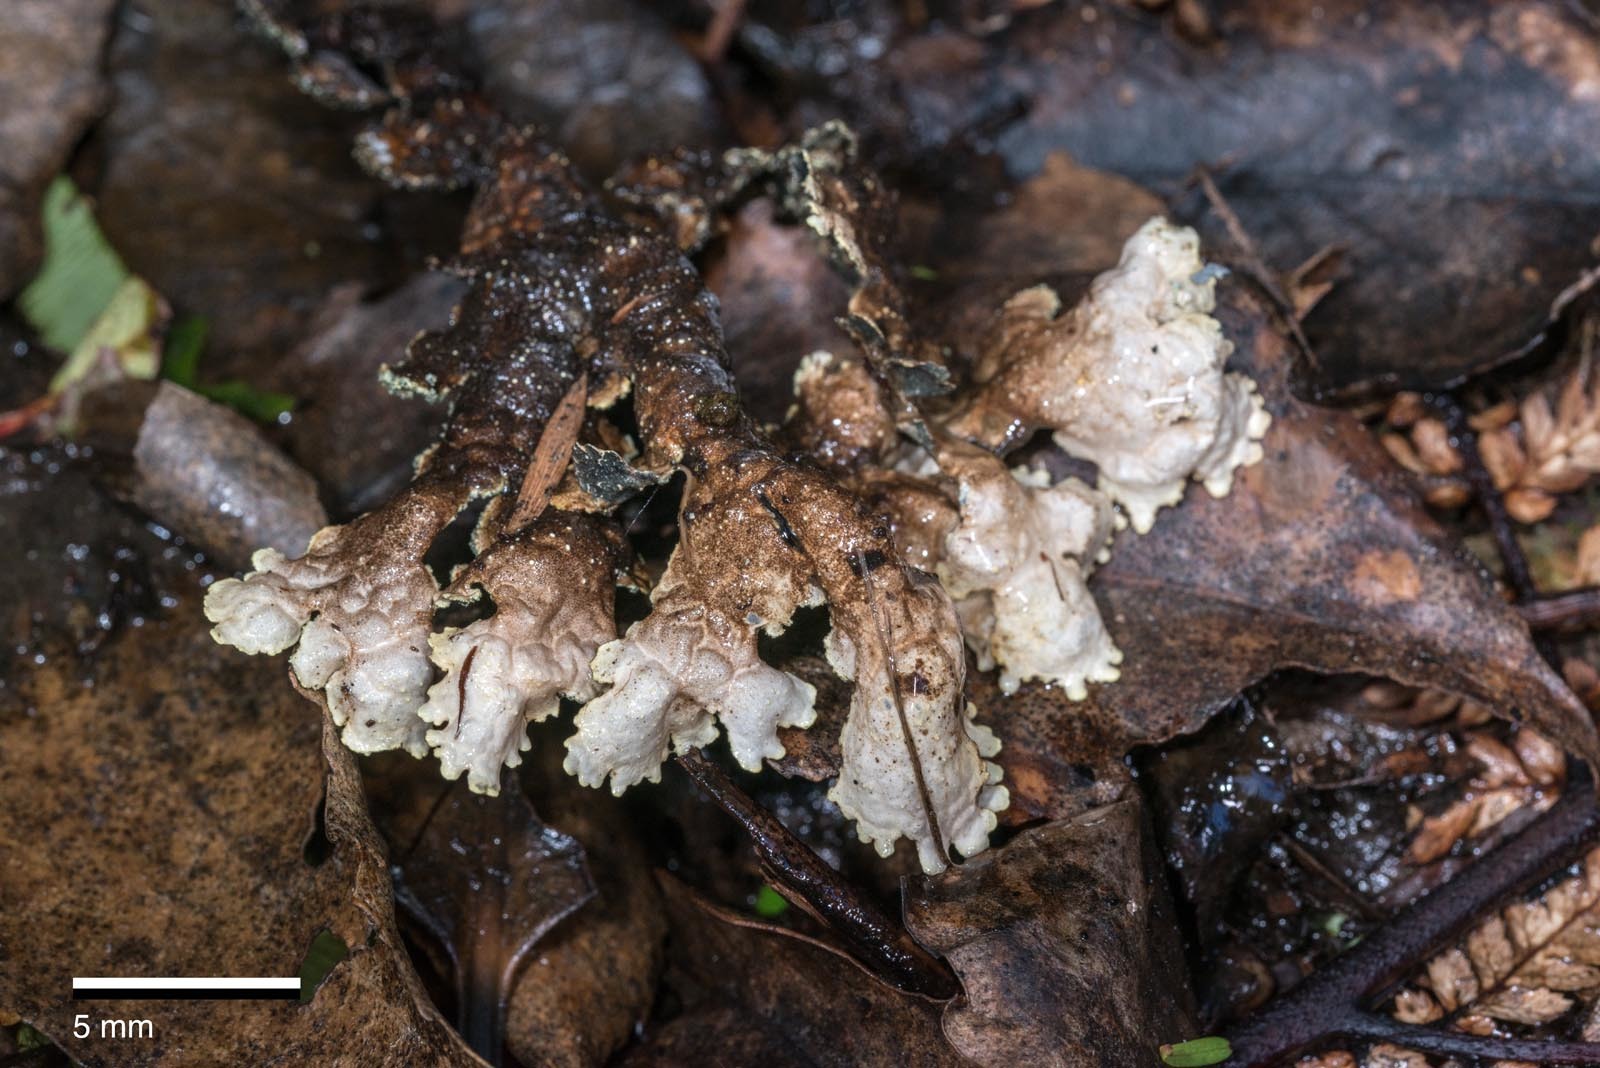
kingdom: Fungi
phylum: Ascomycota
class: Lecanoromycetes
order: Peltigerales
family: Lobariaceae
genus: Pseudocyphellaria
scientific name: Pseudocyphellaria crocata
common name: Golden specklebelly
